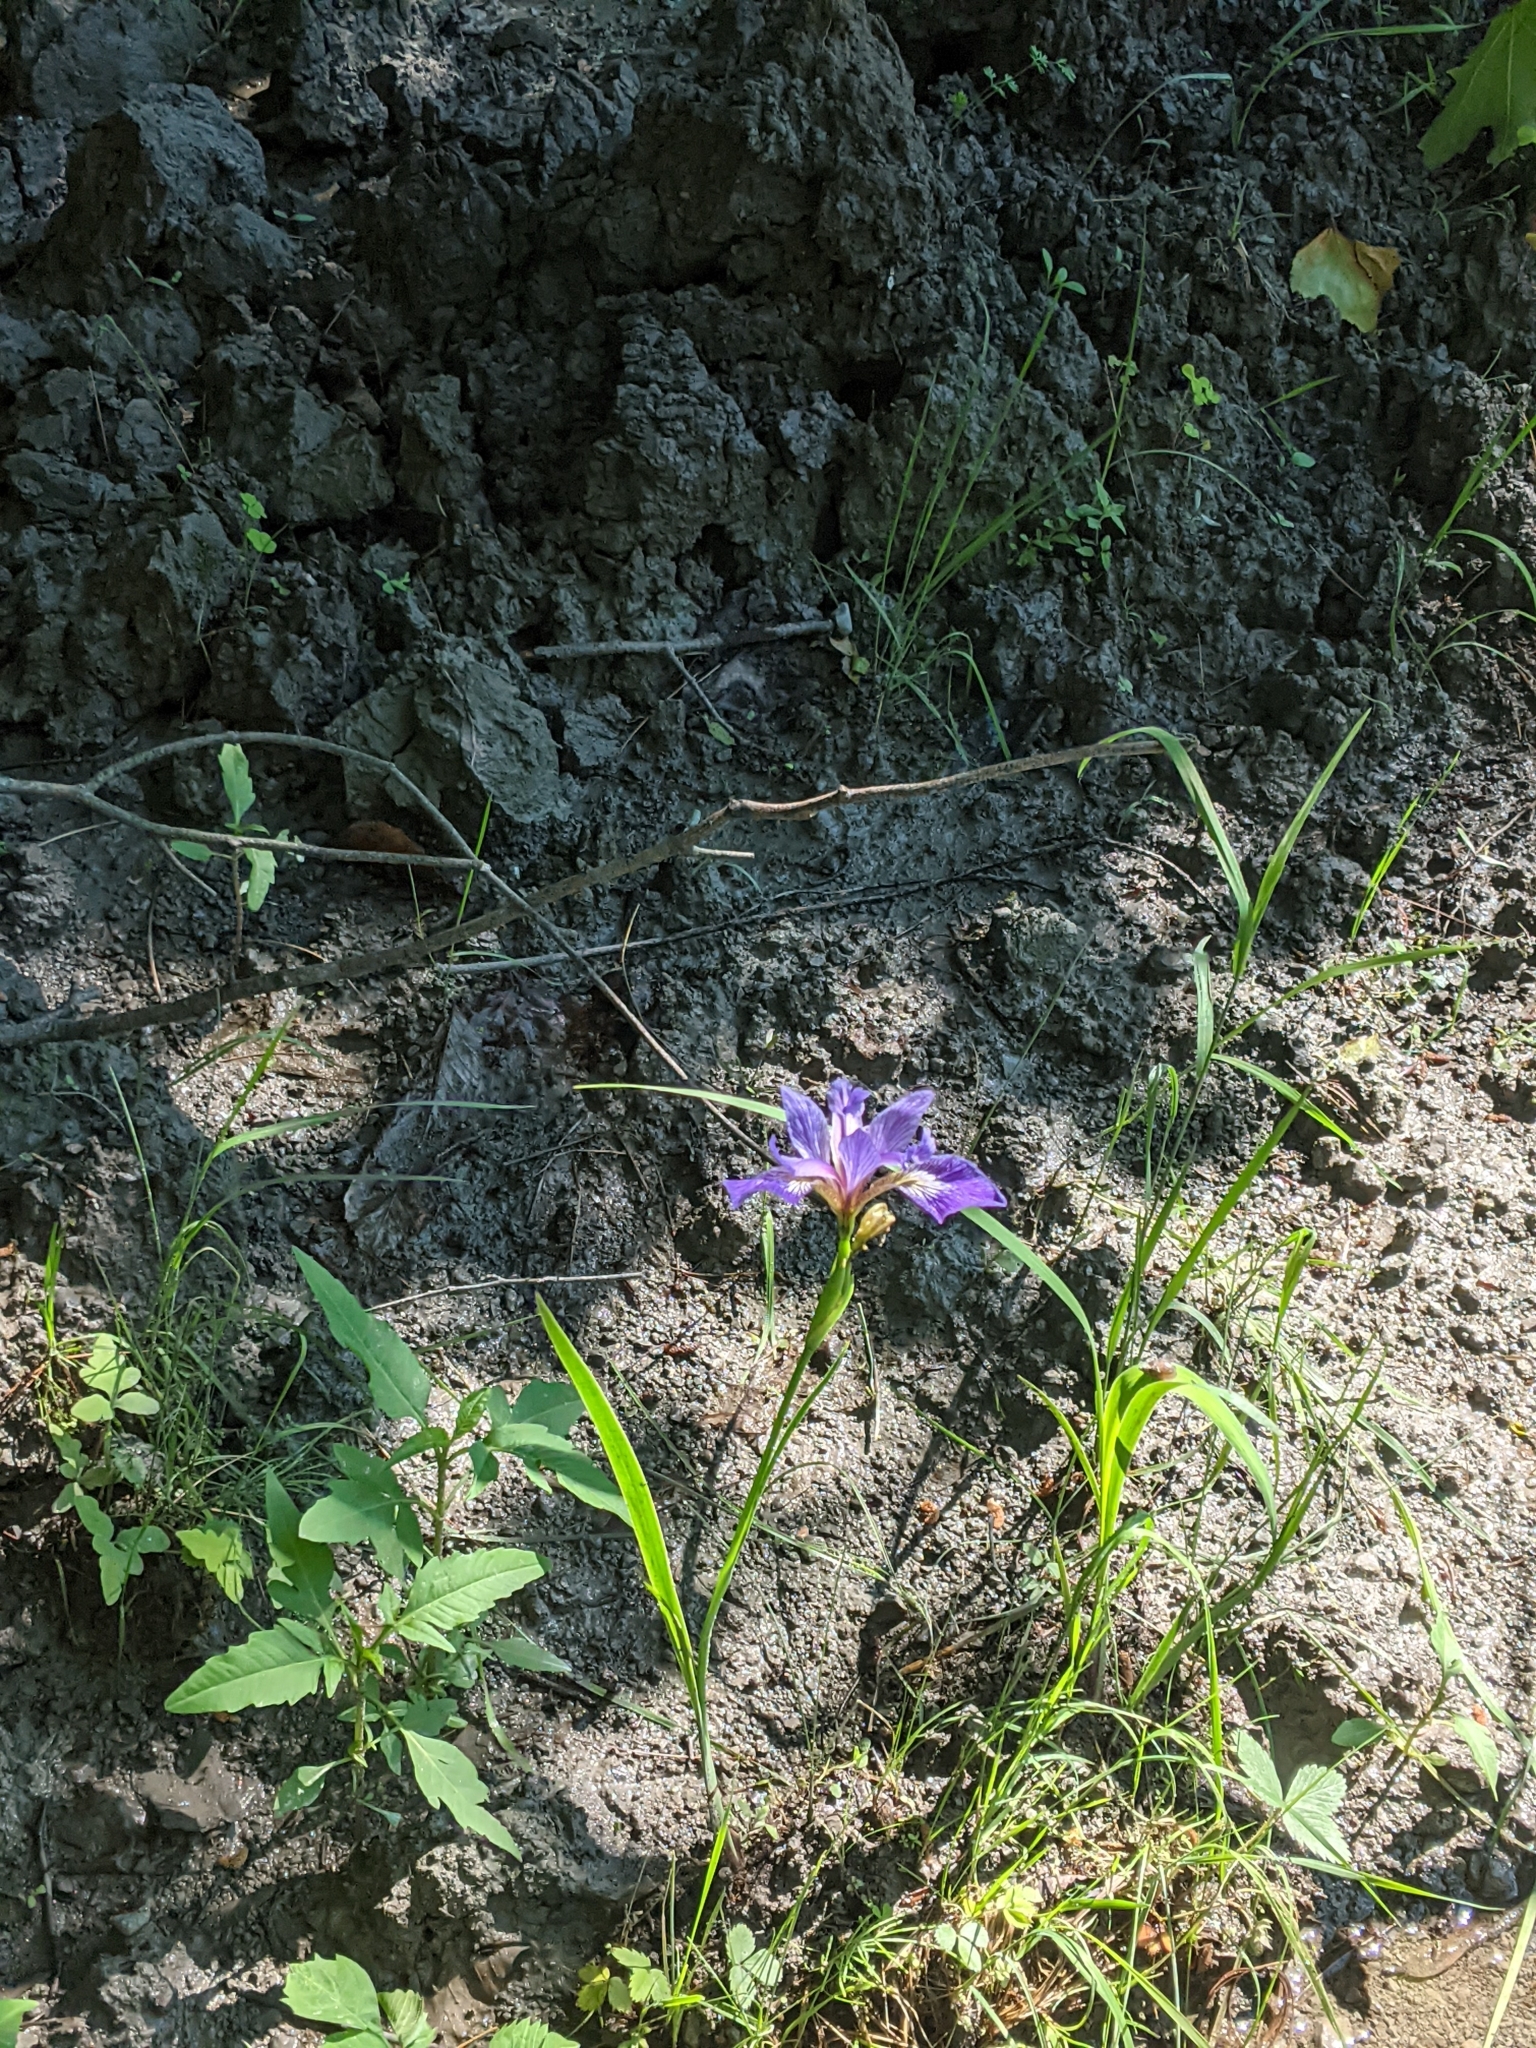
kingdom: Plantae
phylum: Tracheophyta
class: Liliopsida
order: Asparagales
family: Iridaceae
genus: Iris
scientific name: Iris versicolor
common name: Purple iris
